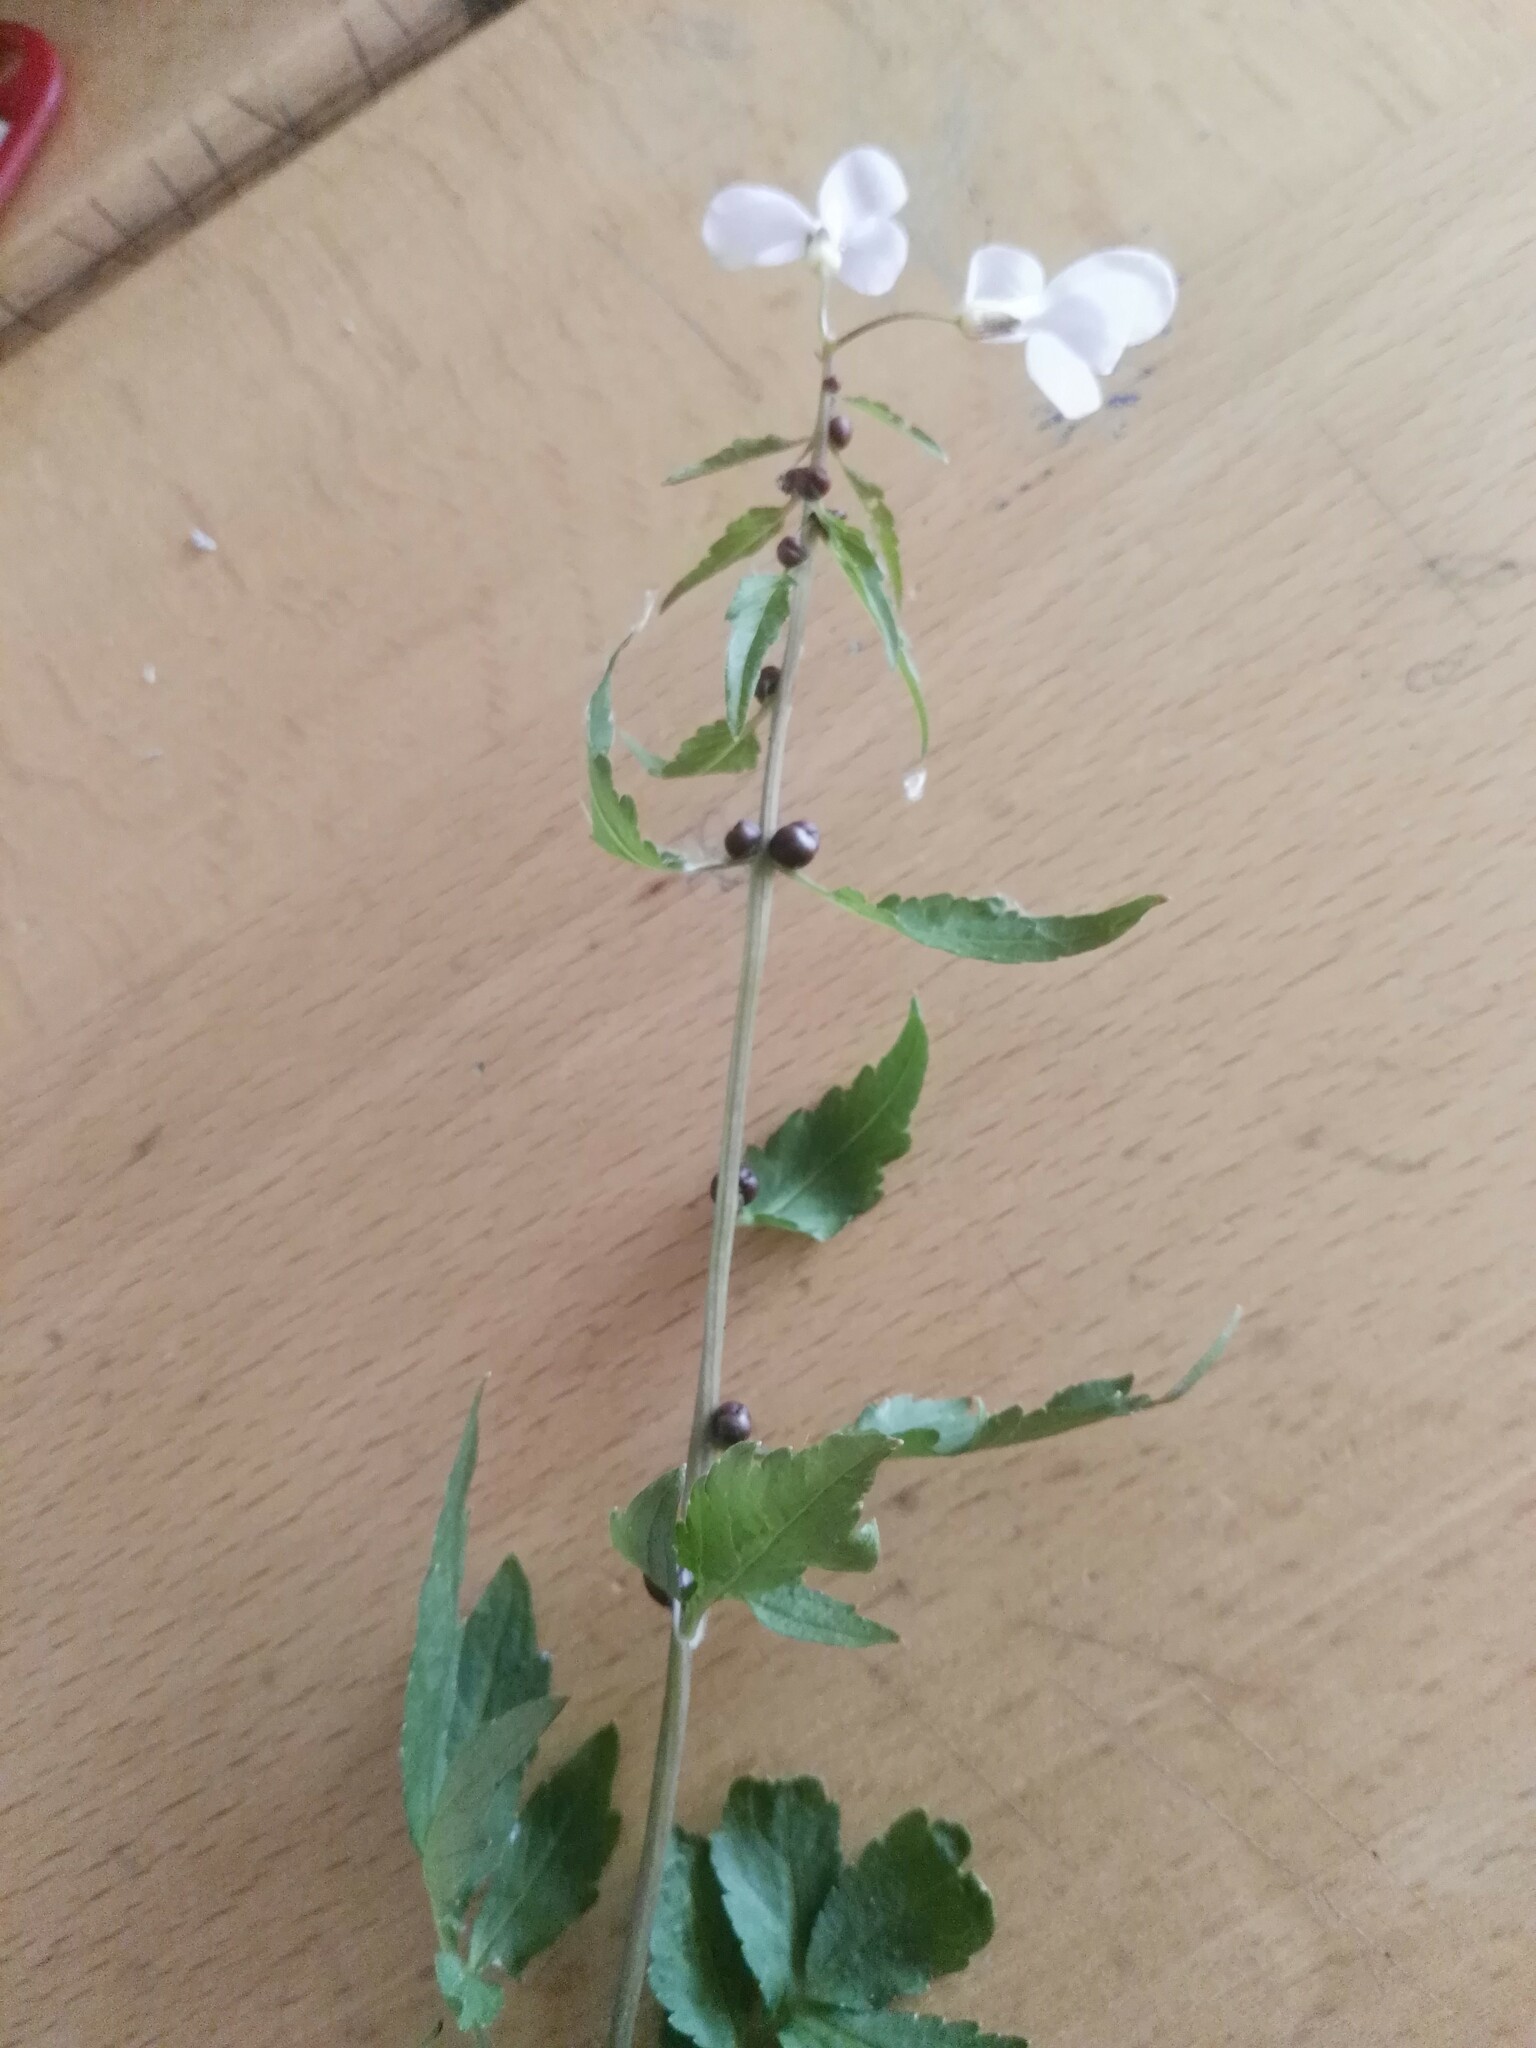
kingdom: Plantae
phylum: Tracheophyta
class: Magnoliopsida
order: Brassicales
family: Brassicaceae
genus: Cardamine
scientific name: Cardamine bulbifera
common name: Coralroot bittercress
